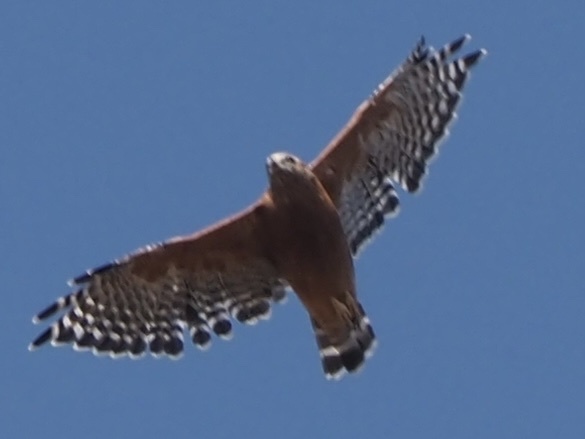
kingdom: Animalia
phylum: Chordata
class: Aves
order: Accipitriformes
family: Accipitridae
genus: Buteo
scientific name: Buteo lineatus
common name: Red-shouldered hawk
